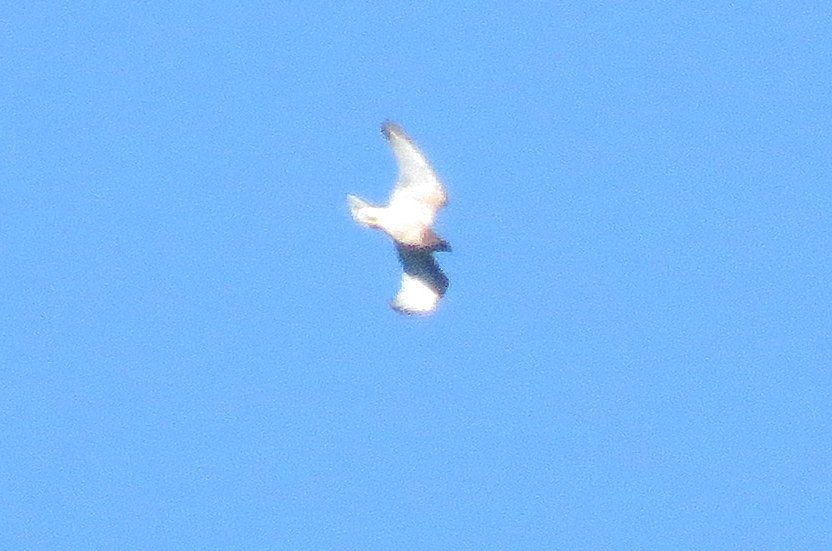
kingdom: Animalia
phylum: Chordata
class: Aves
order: Accipitriformes
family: Accipitridae
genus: Buteo
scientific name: Buteo polyosoma
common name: Variable hawk
